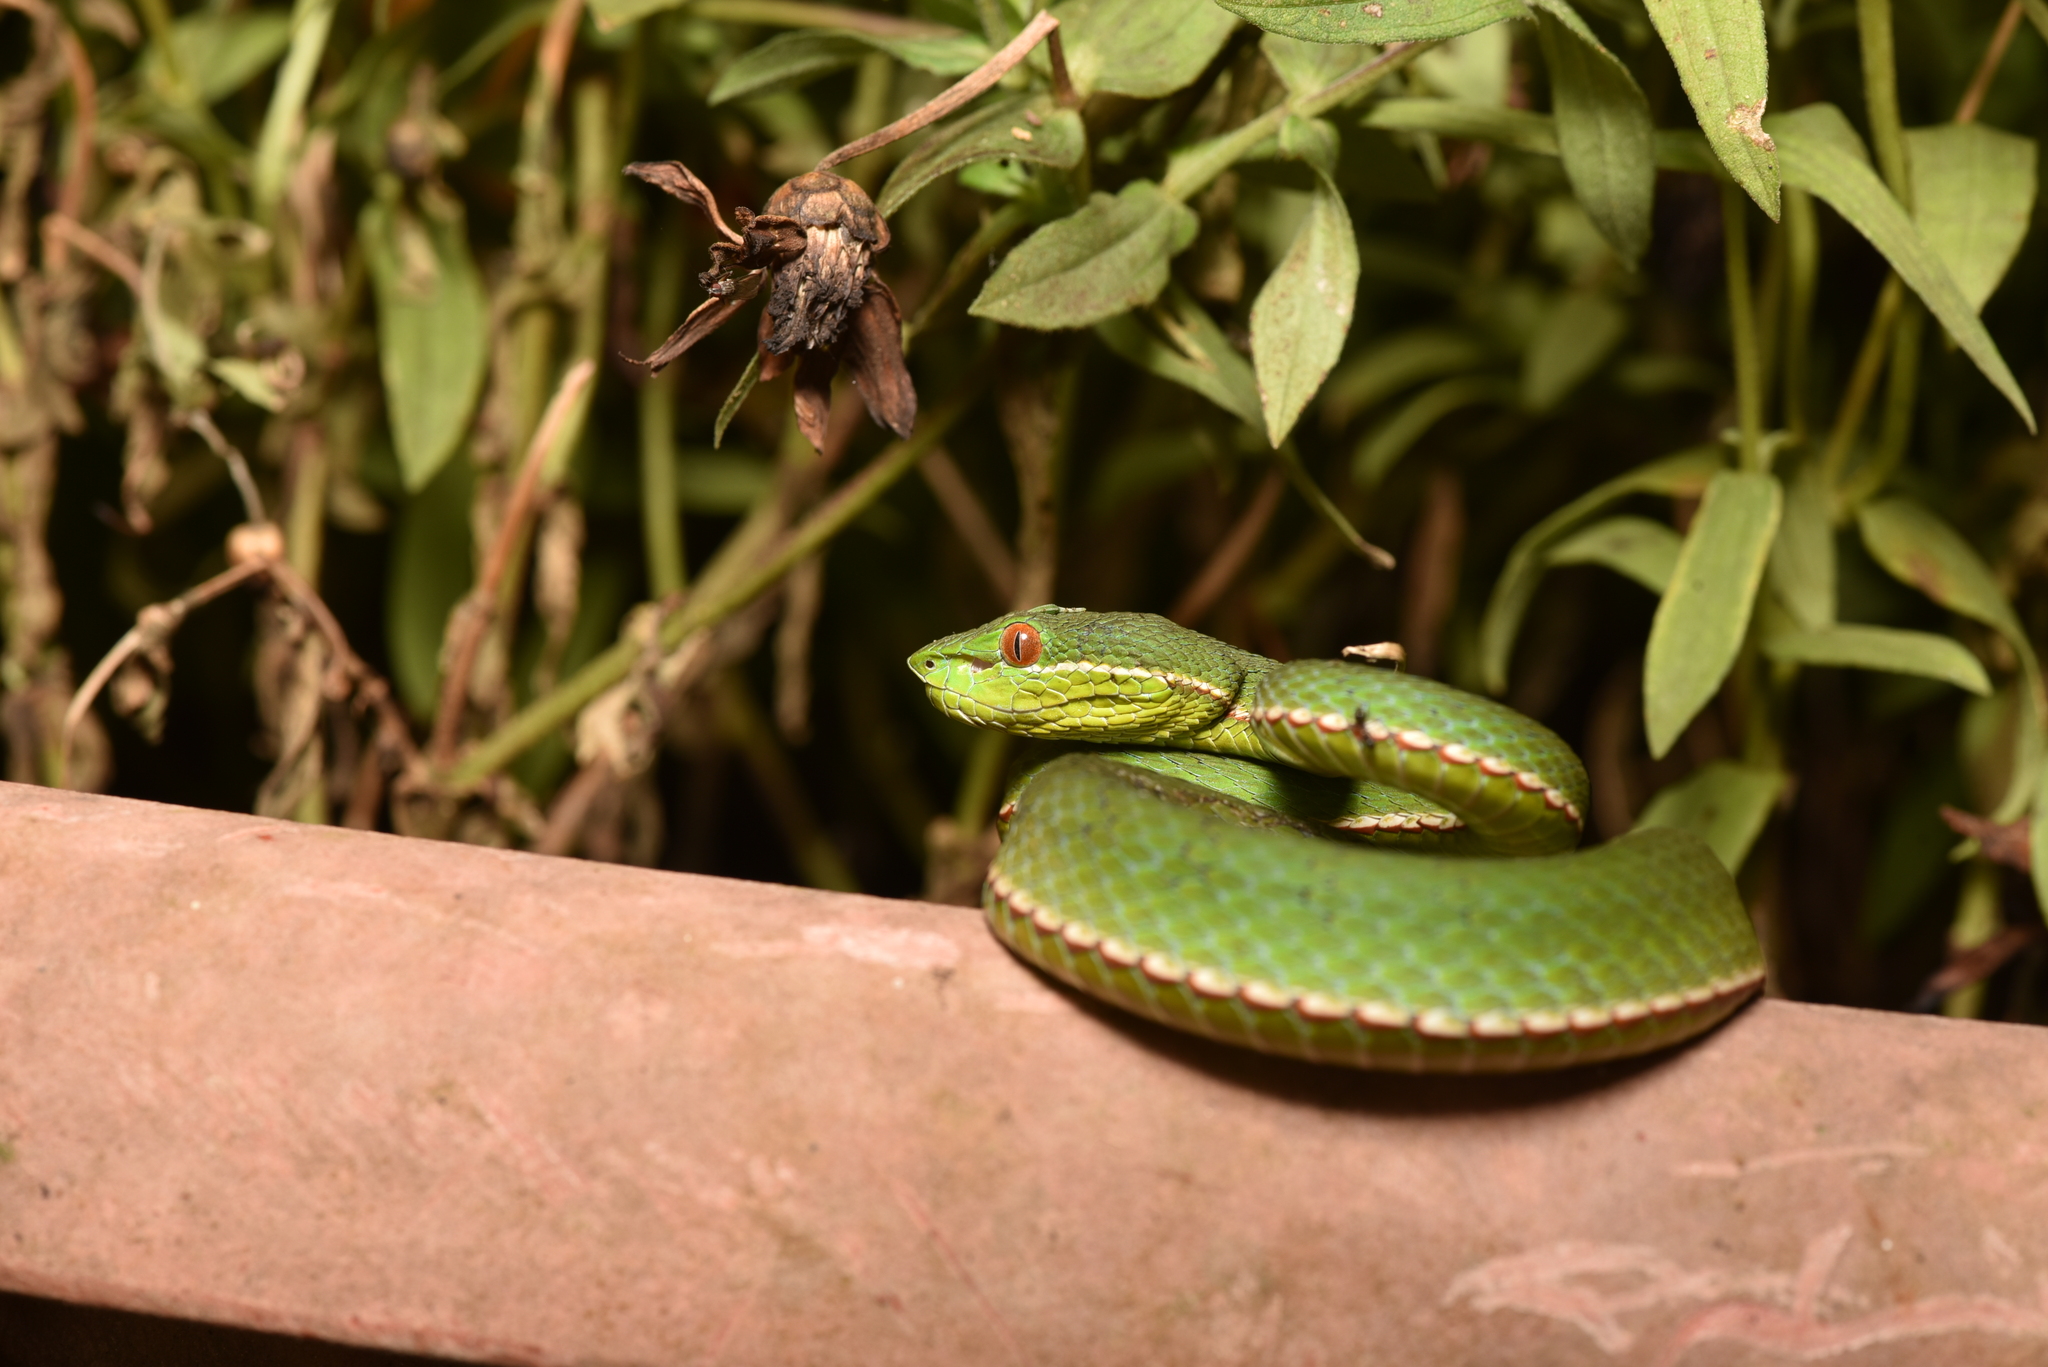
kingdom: Animalia
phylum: Chordata
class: Squamata
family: Viperidae
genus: Trimeresurus
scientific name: Trimeresurus stejnegeri
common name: Chen’s bamboo pit viper
